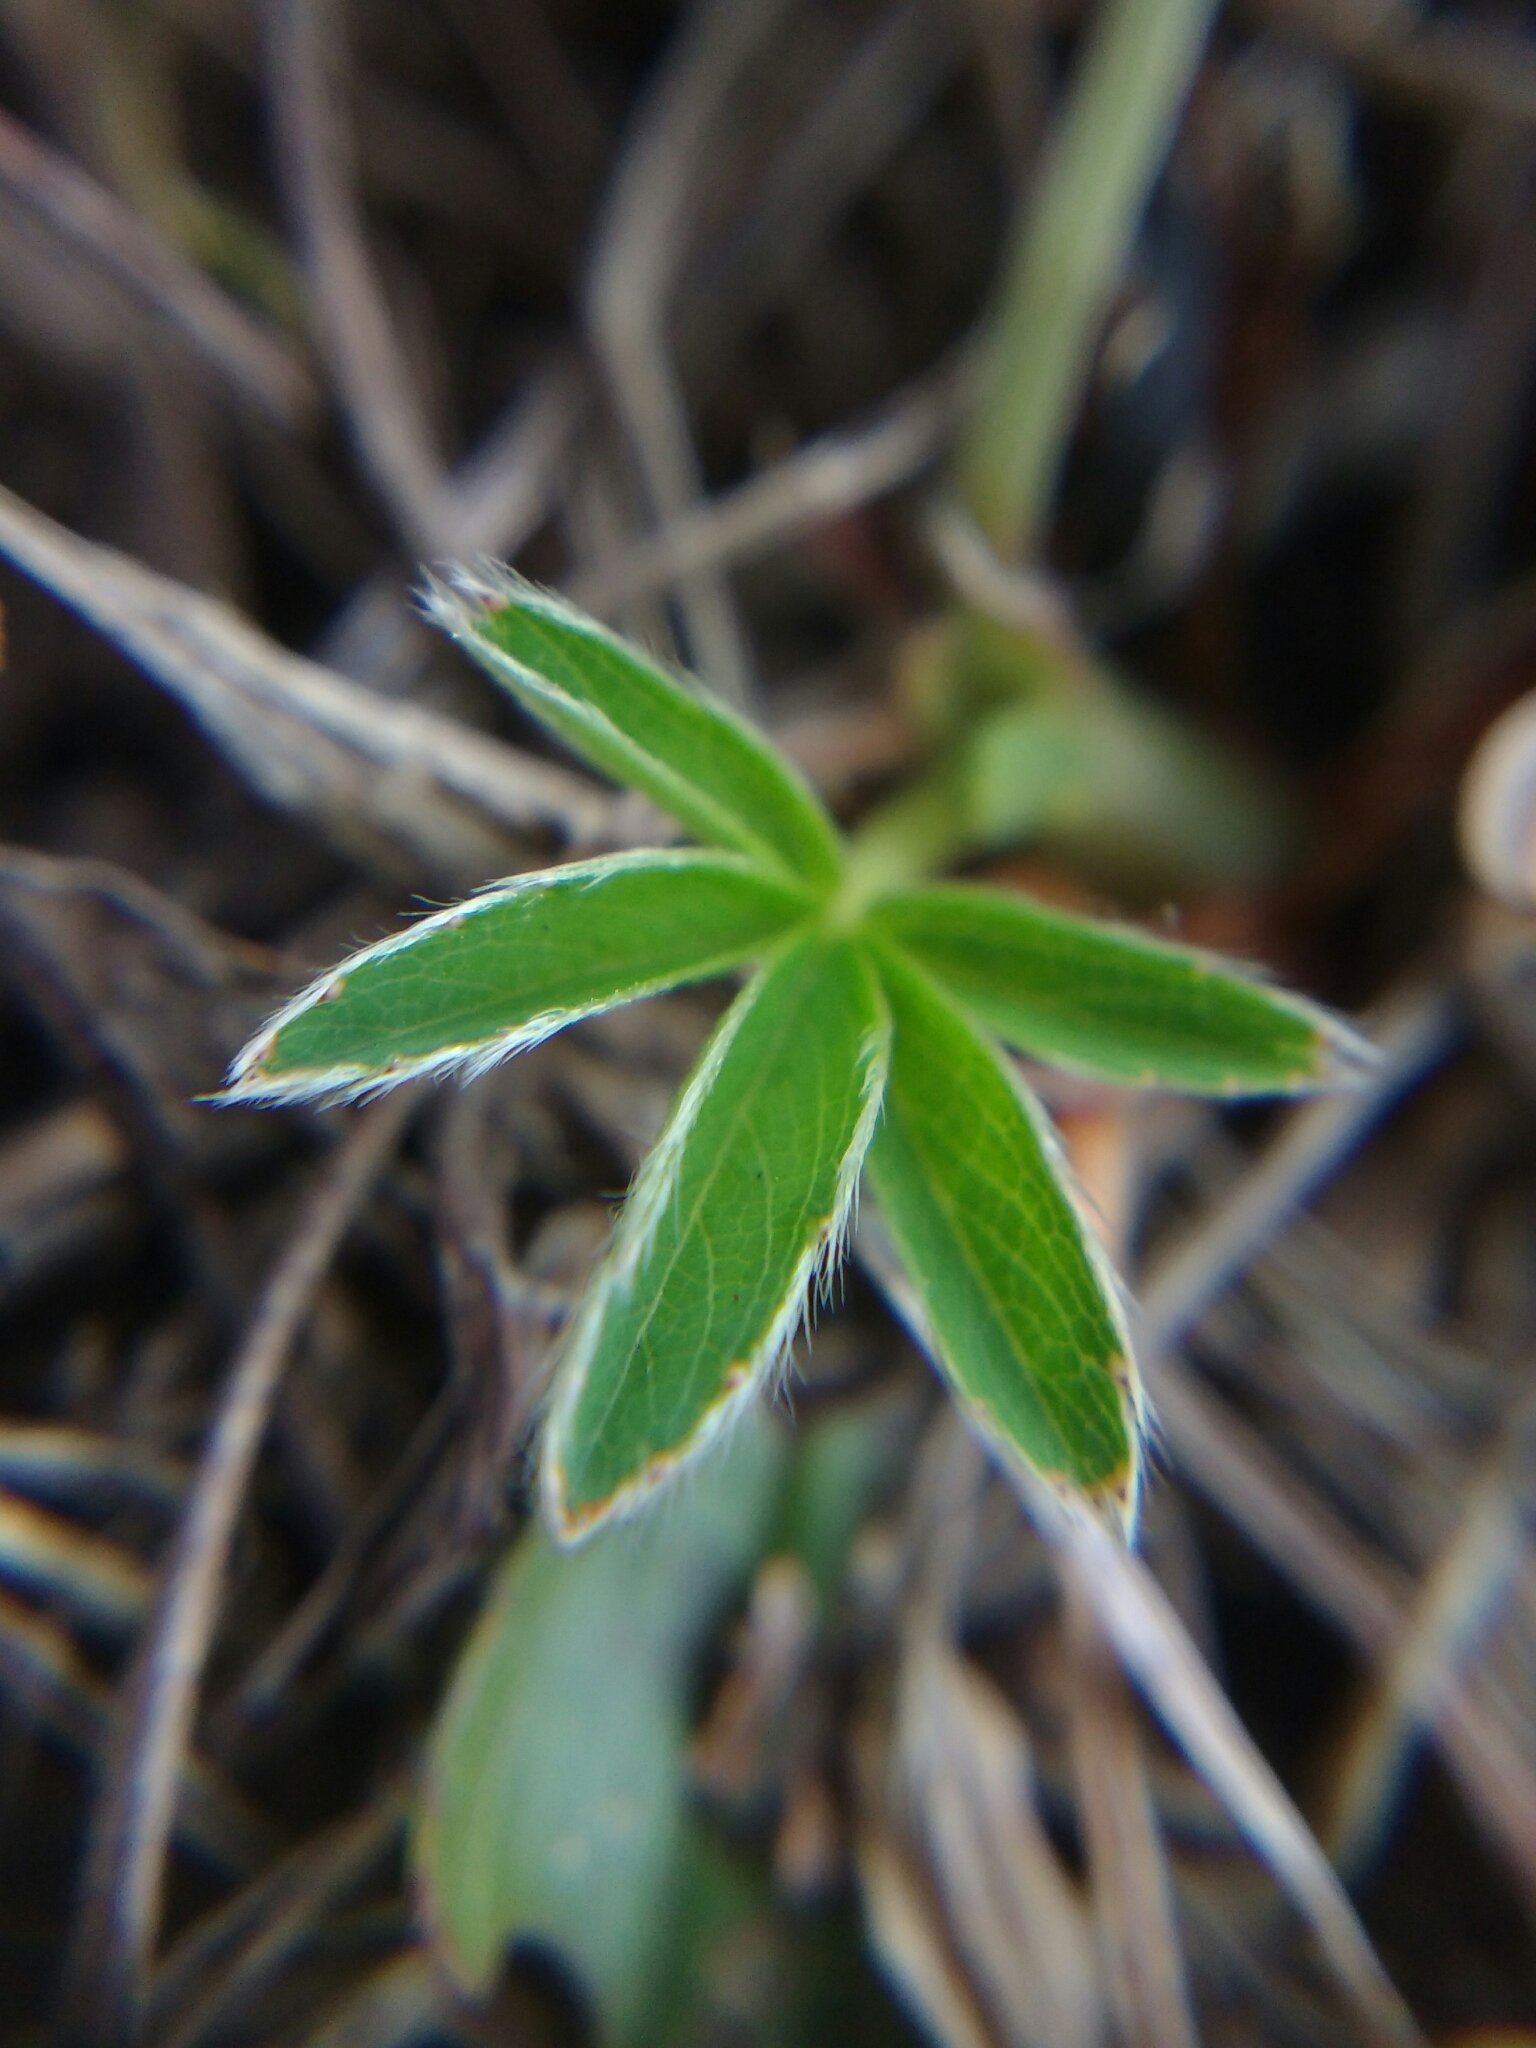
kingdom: Plantae
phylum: Tracheophyta
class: Magnoliopsida
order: Rosales
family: Rosaceae
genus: Potentilla
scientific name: Potentilla alba
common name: White cinquefoil
